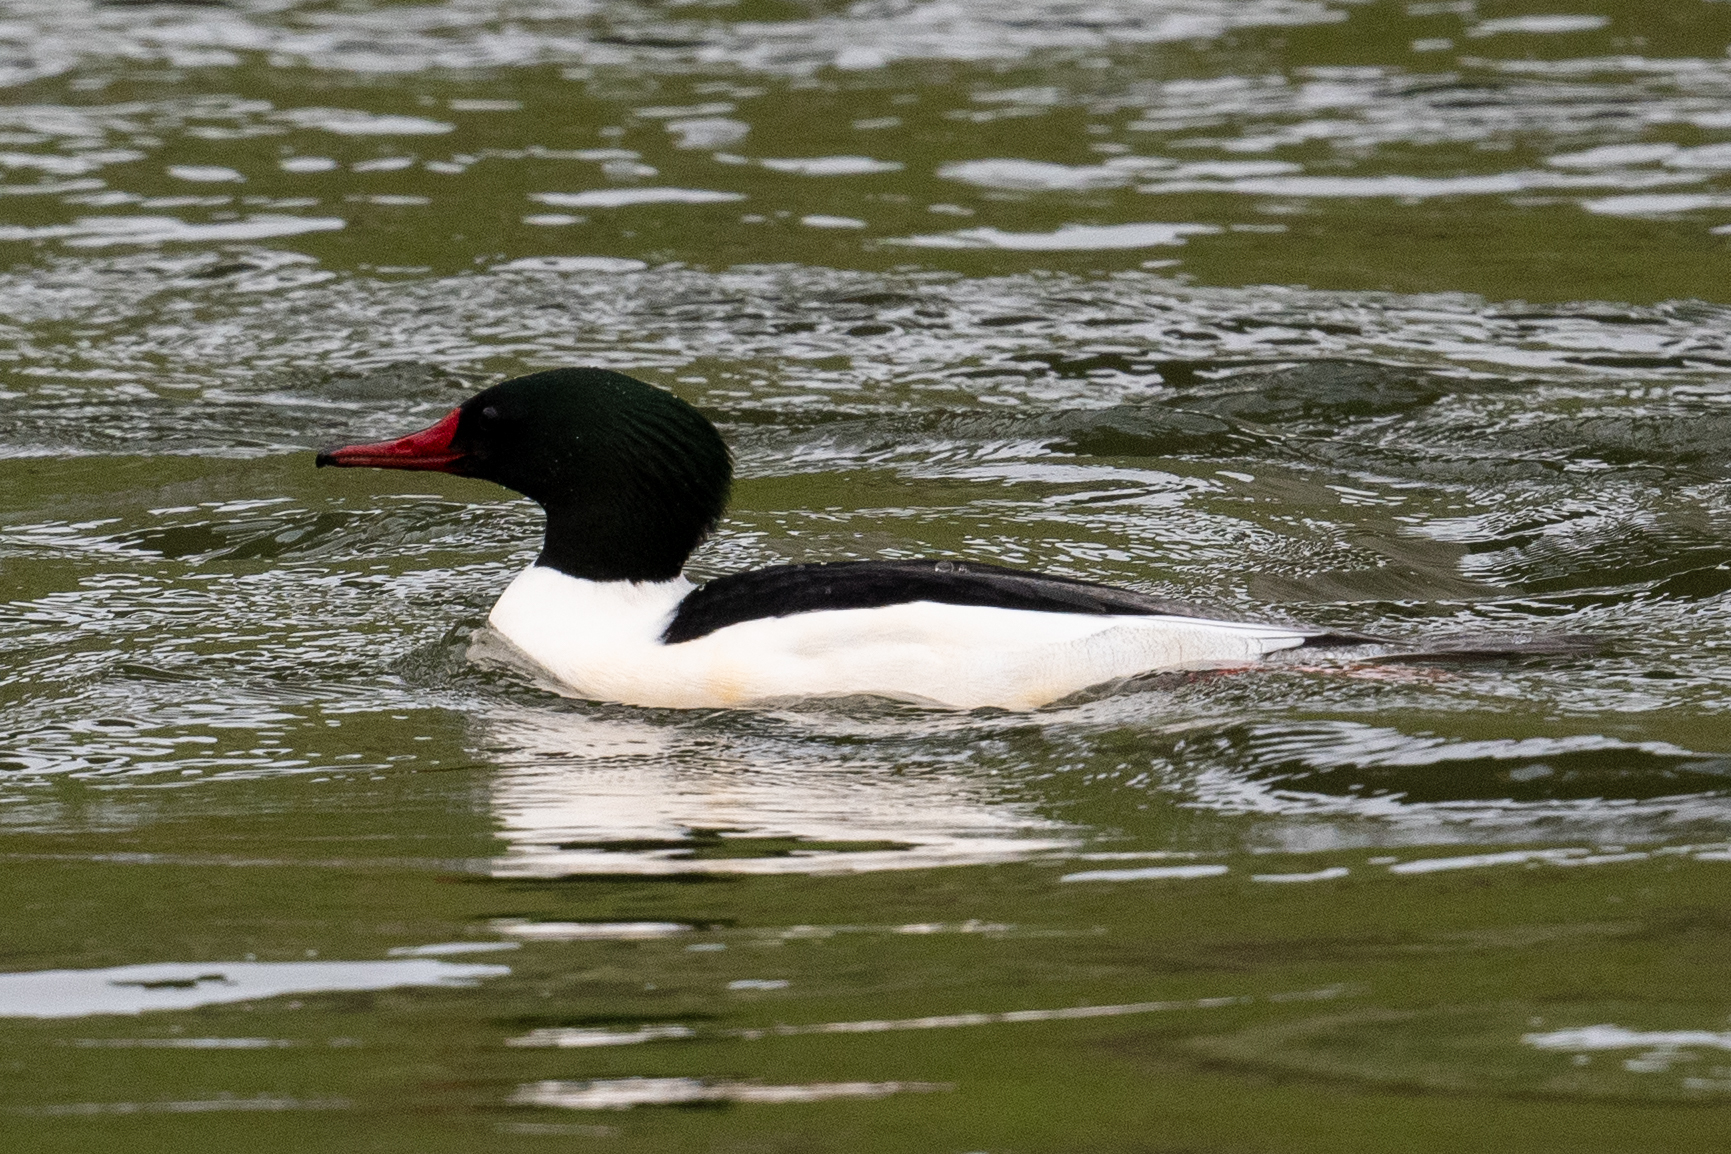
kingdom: Animalia
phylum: Chordata
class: Aves
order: Anseriformes
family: Anatidae
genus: Mergus
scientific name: Mergus merganser
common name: Common merganser
